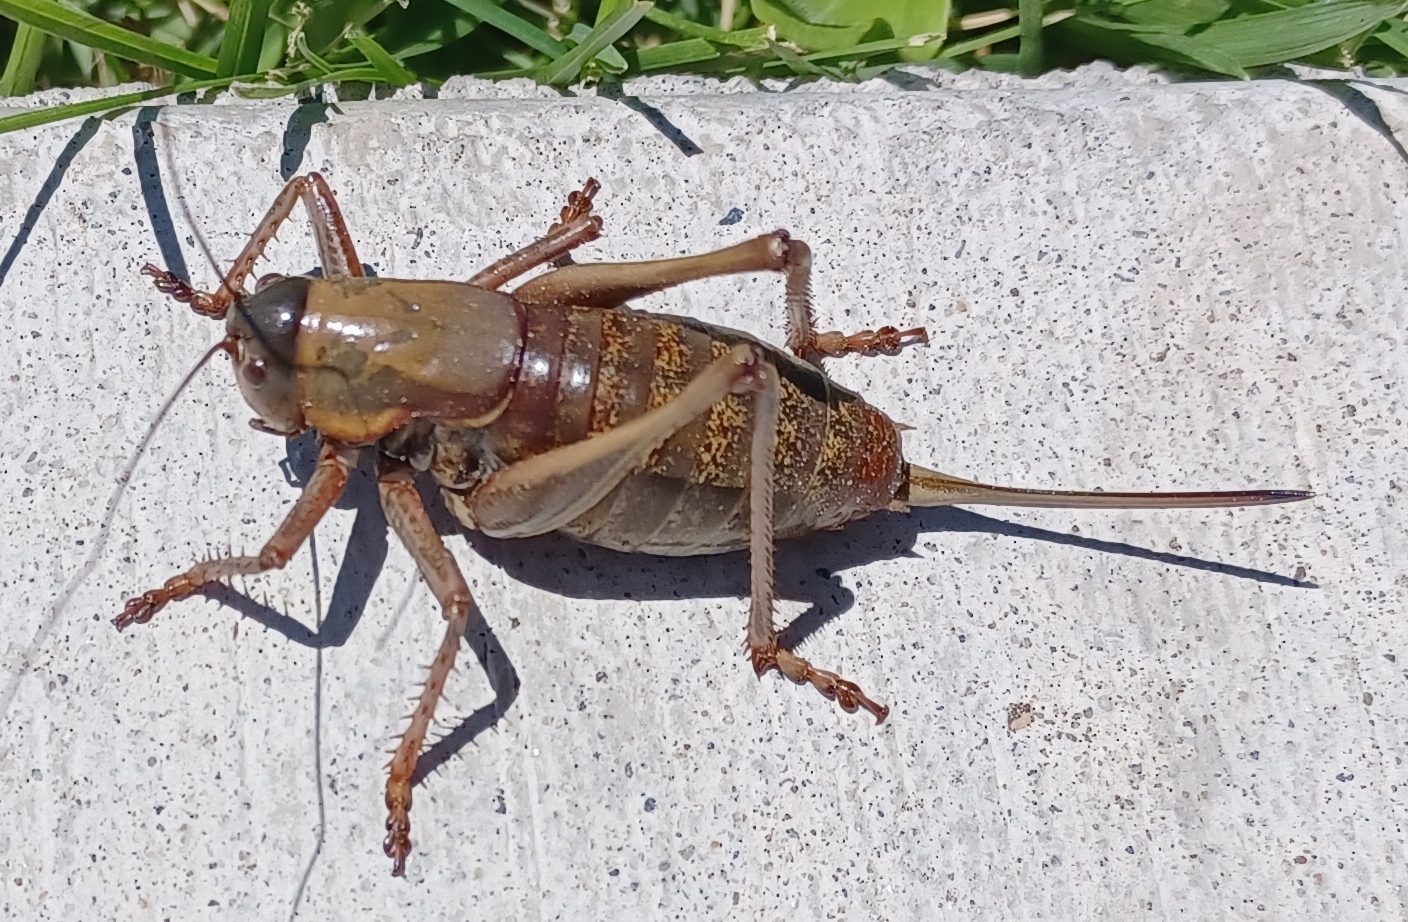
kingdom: Animalia
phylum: Arthropoda
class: Insecta
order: Orthoptera
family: Tettigoniidae
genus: Anabrus
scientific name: Anabrus simplex
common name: Mormon cricket
